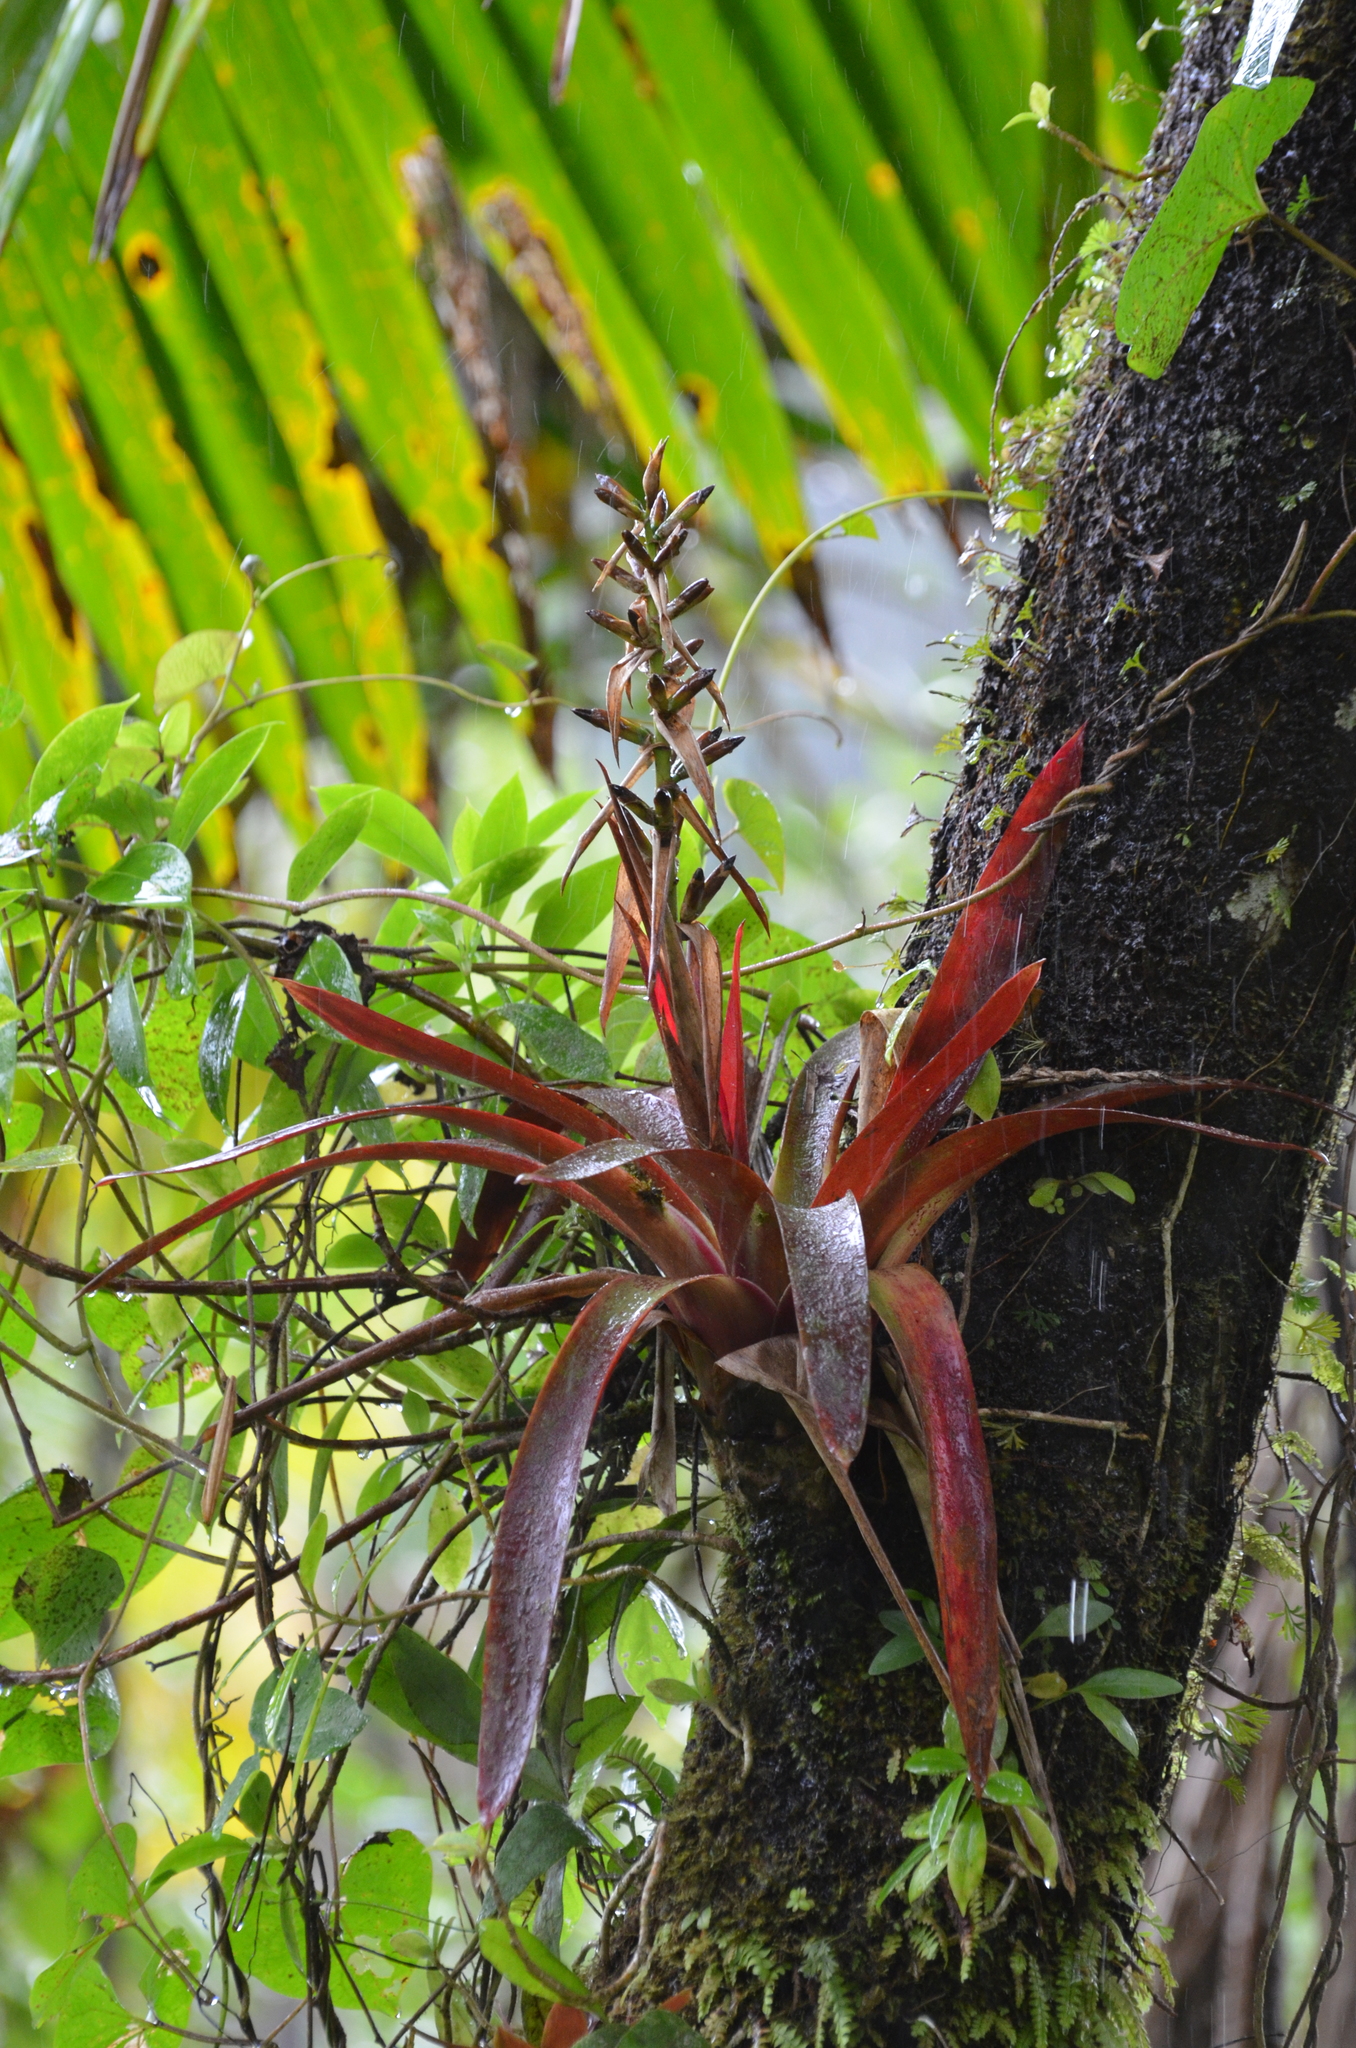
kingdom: Plantae
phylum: Tracheophyta
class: Liliopsida
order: Poales
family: Bromeliaceae
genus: Werauhia
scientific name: Werauhia sintenisii
